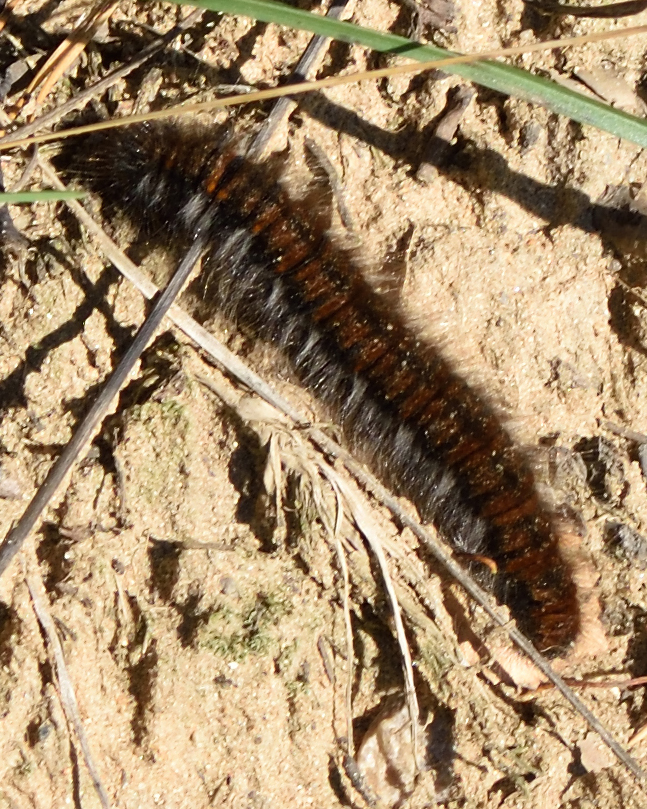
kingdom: Animalia
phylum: Arthropoda
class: Insecta
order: Lepidoptera
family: Lasiocampidae
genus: Macrothylacia
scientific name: Macrothylacia rubi
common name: Fox moth
